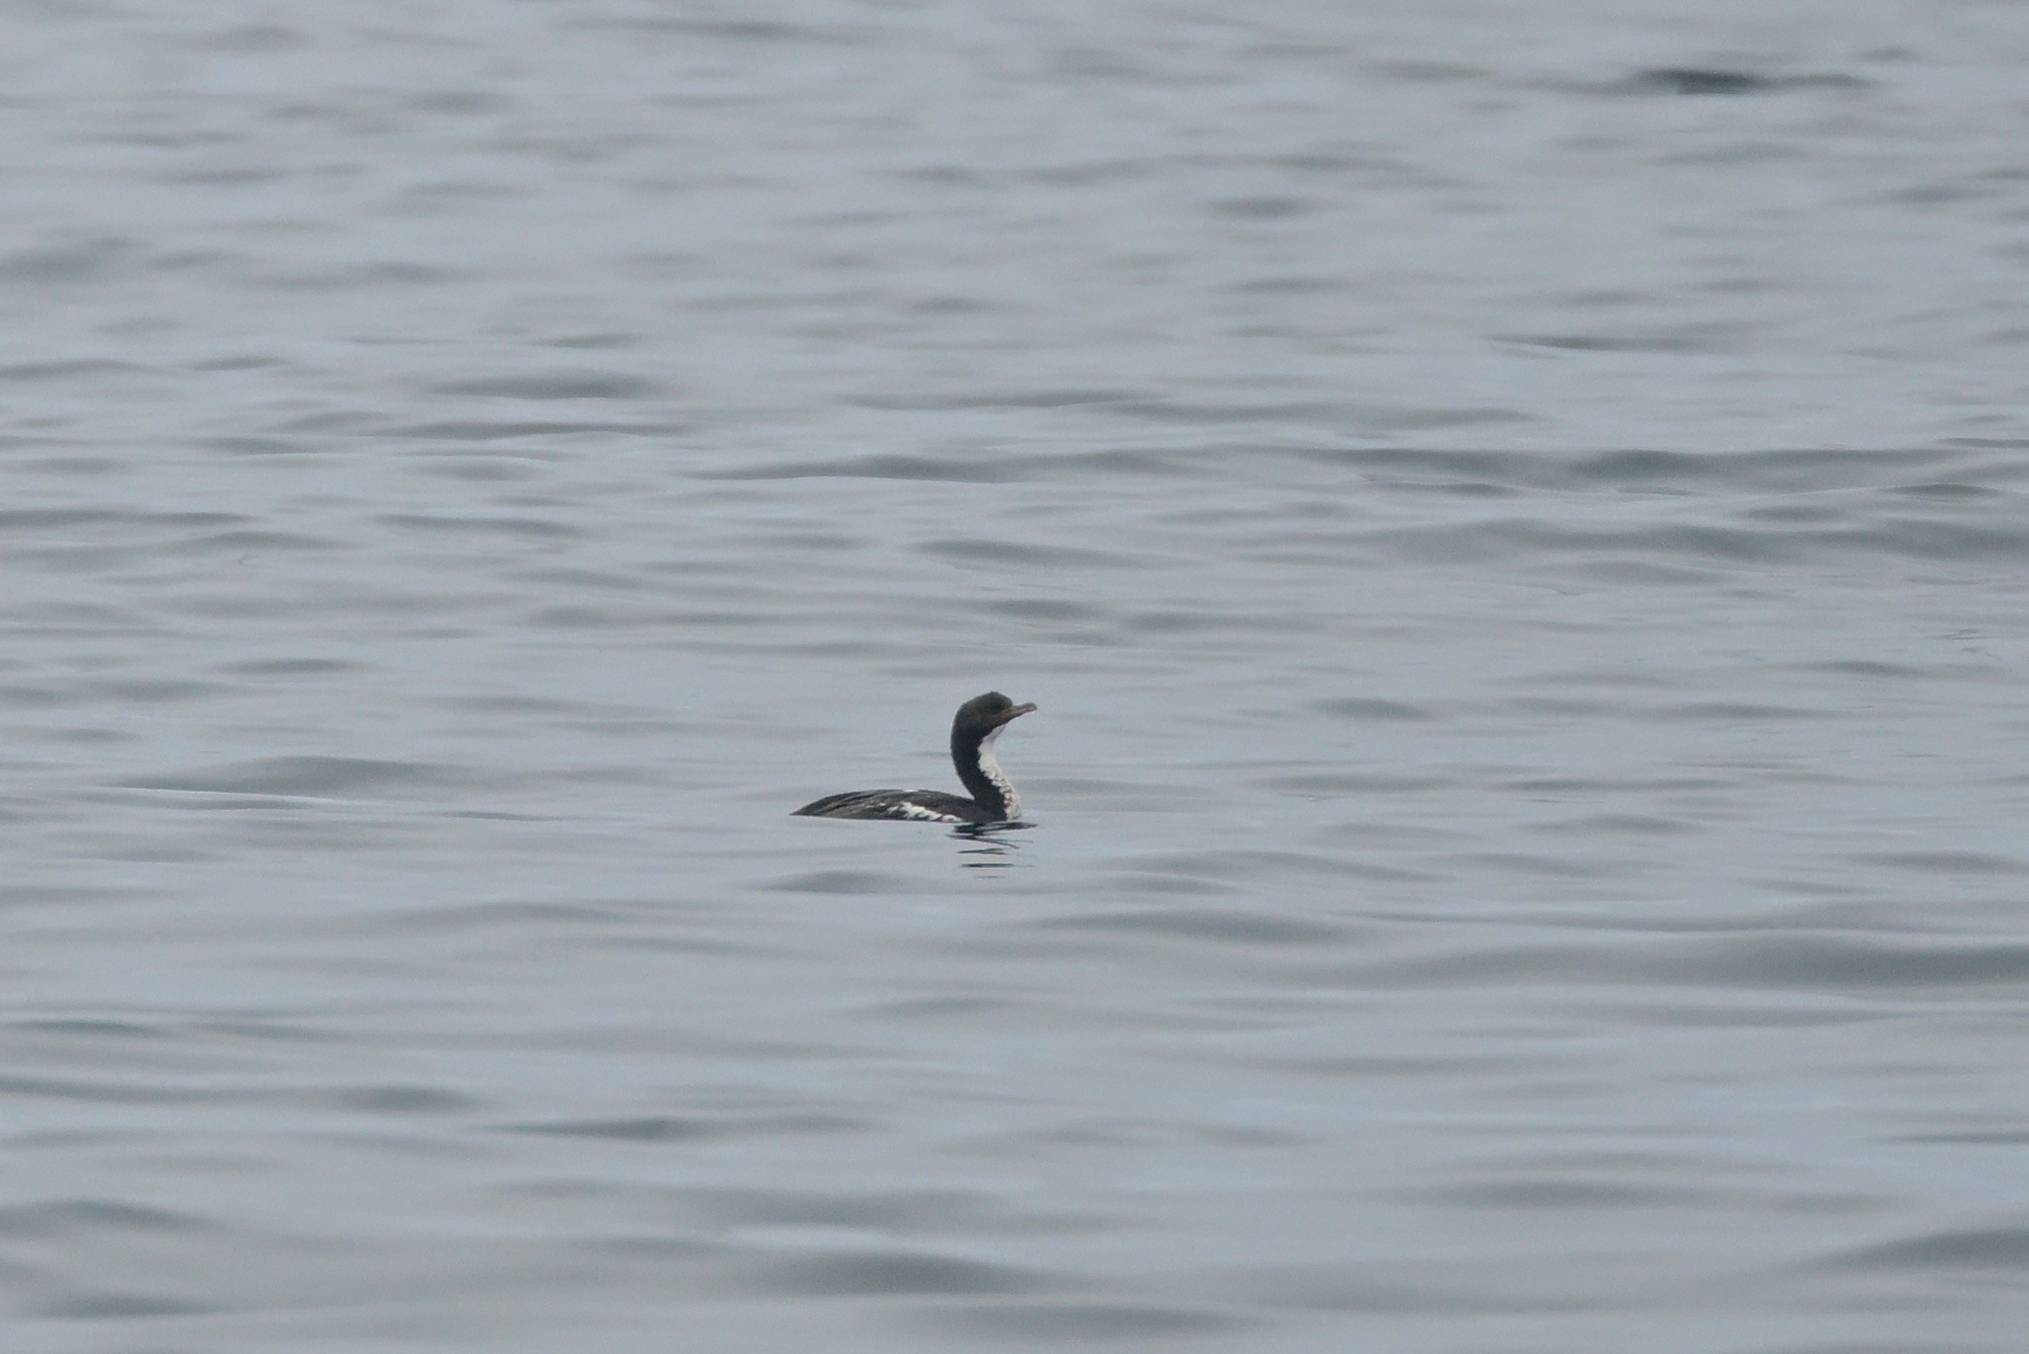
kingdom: Animalia
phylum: Chordata
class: Aves
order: Suliformes
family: Phalacrocoracidae
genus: Leucocarbo
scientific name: Leucocarbo chalconotus
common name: Stewart shag
